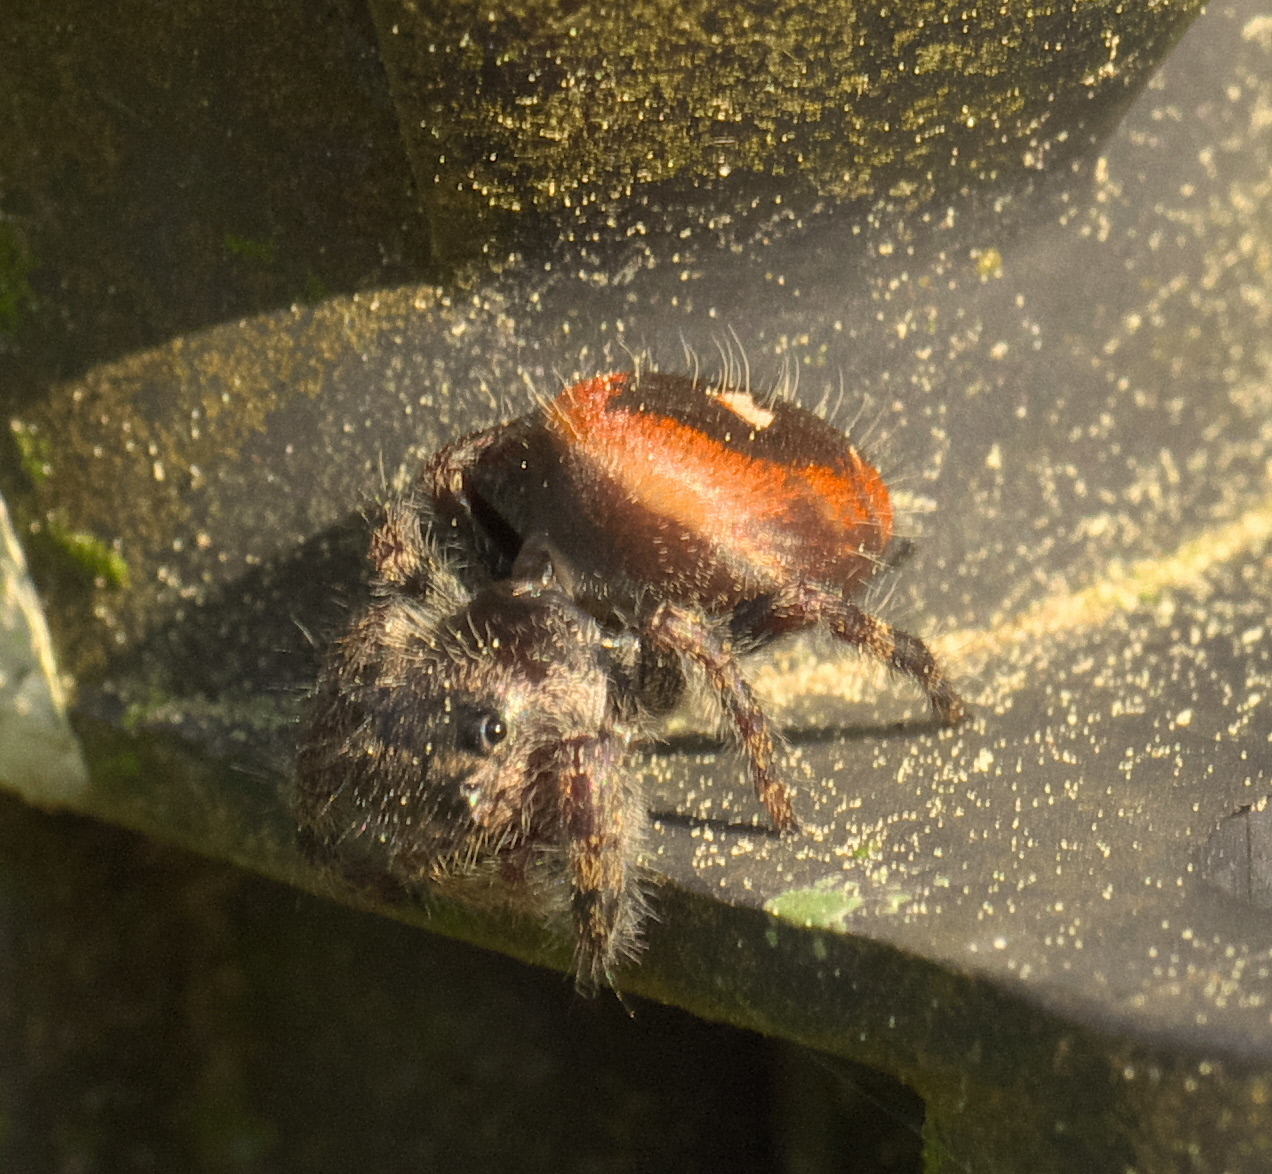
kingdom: Animalia
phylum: Arthropoda
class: Arachnida
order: Araneae
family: Salticidae
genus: Phidippus
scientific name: Phidippus princeps
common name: Grayish jumping spider
